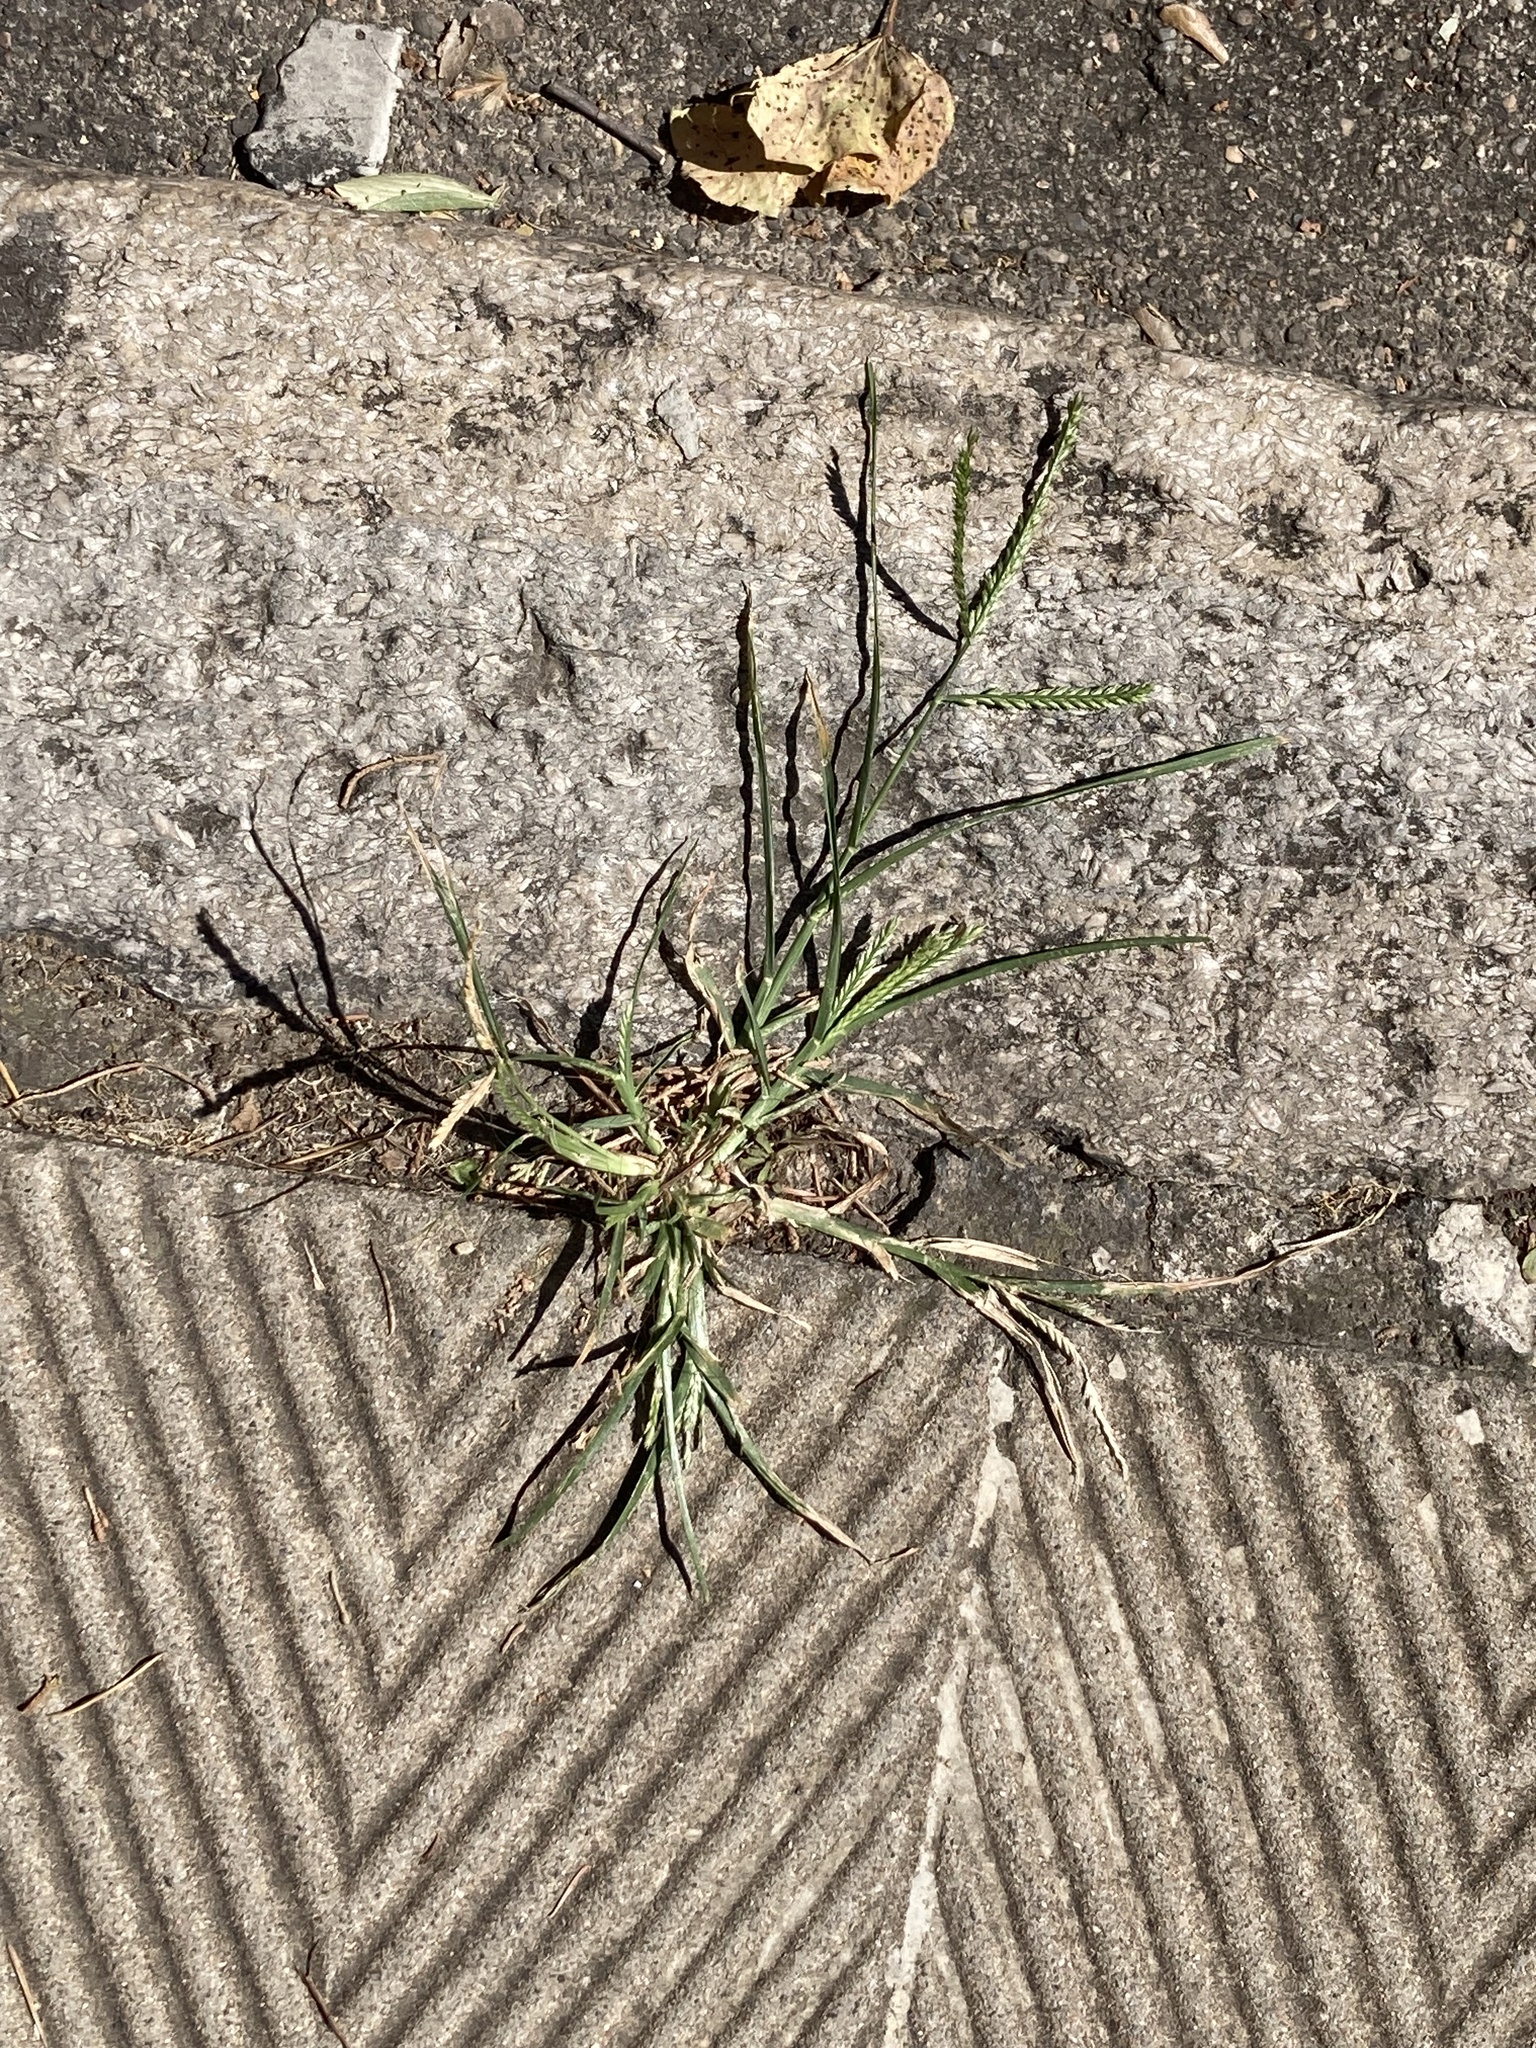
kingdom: Plantae
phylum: Tracheophyta
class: Liliopsida
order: Poales
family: Poaceae
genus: Eleusine
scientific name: Eleusine indica
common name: Yard-grass
